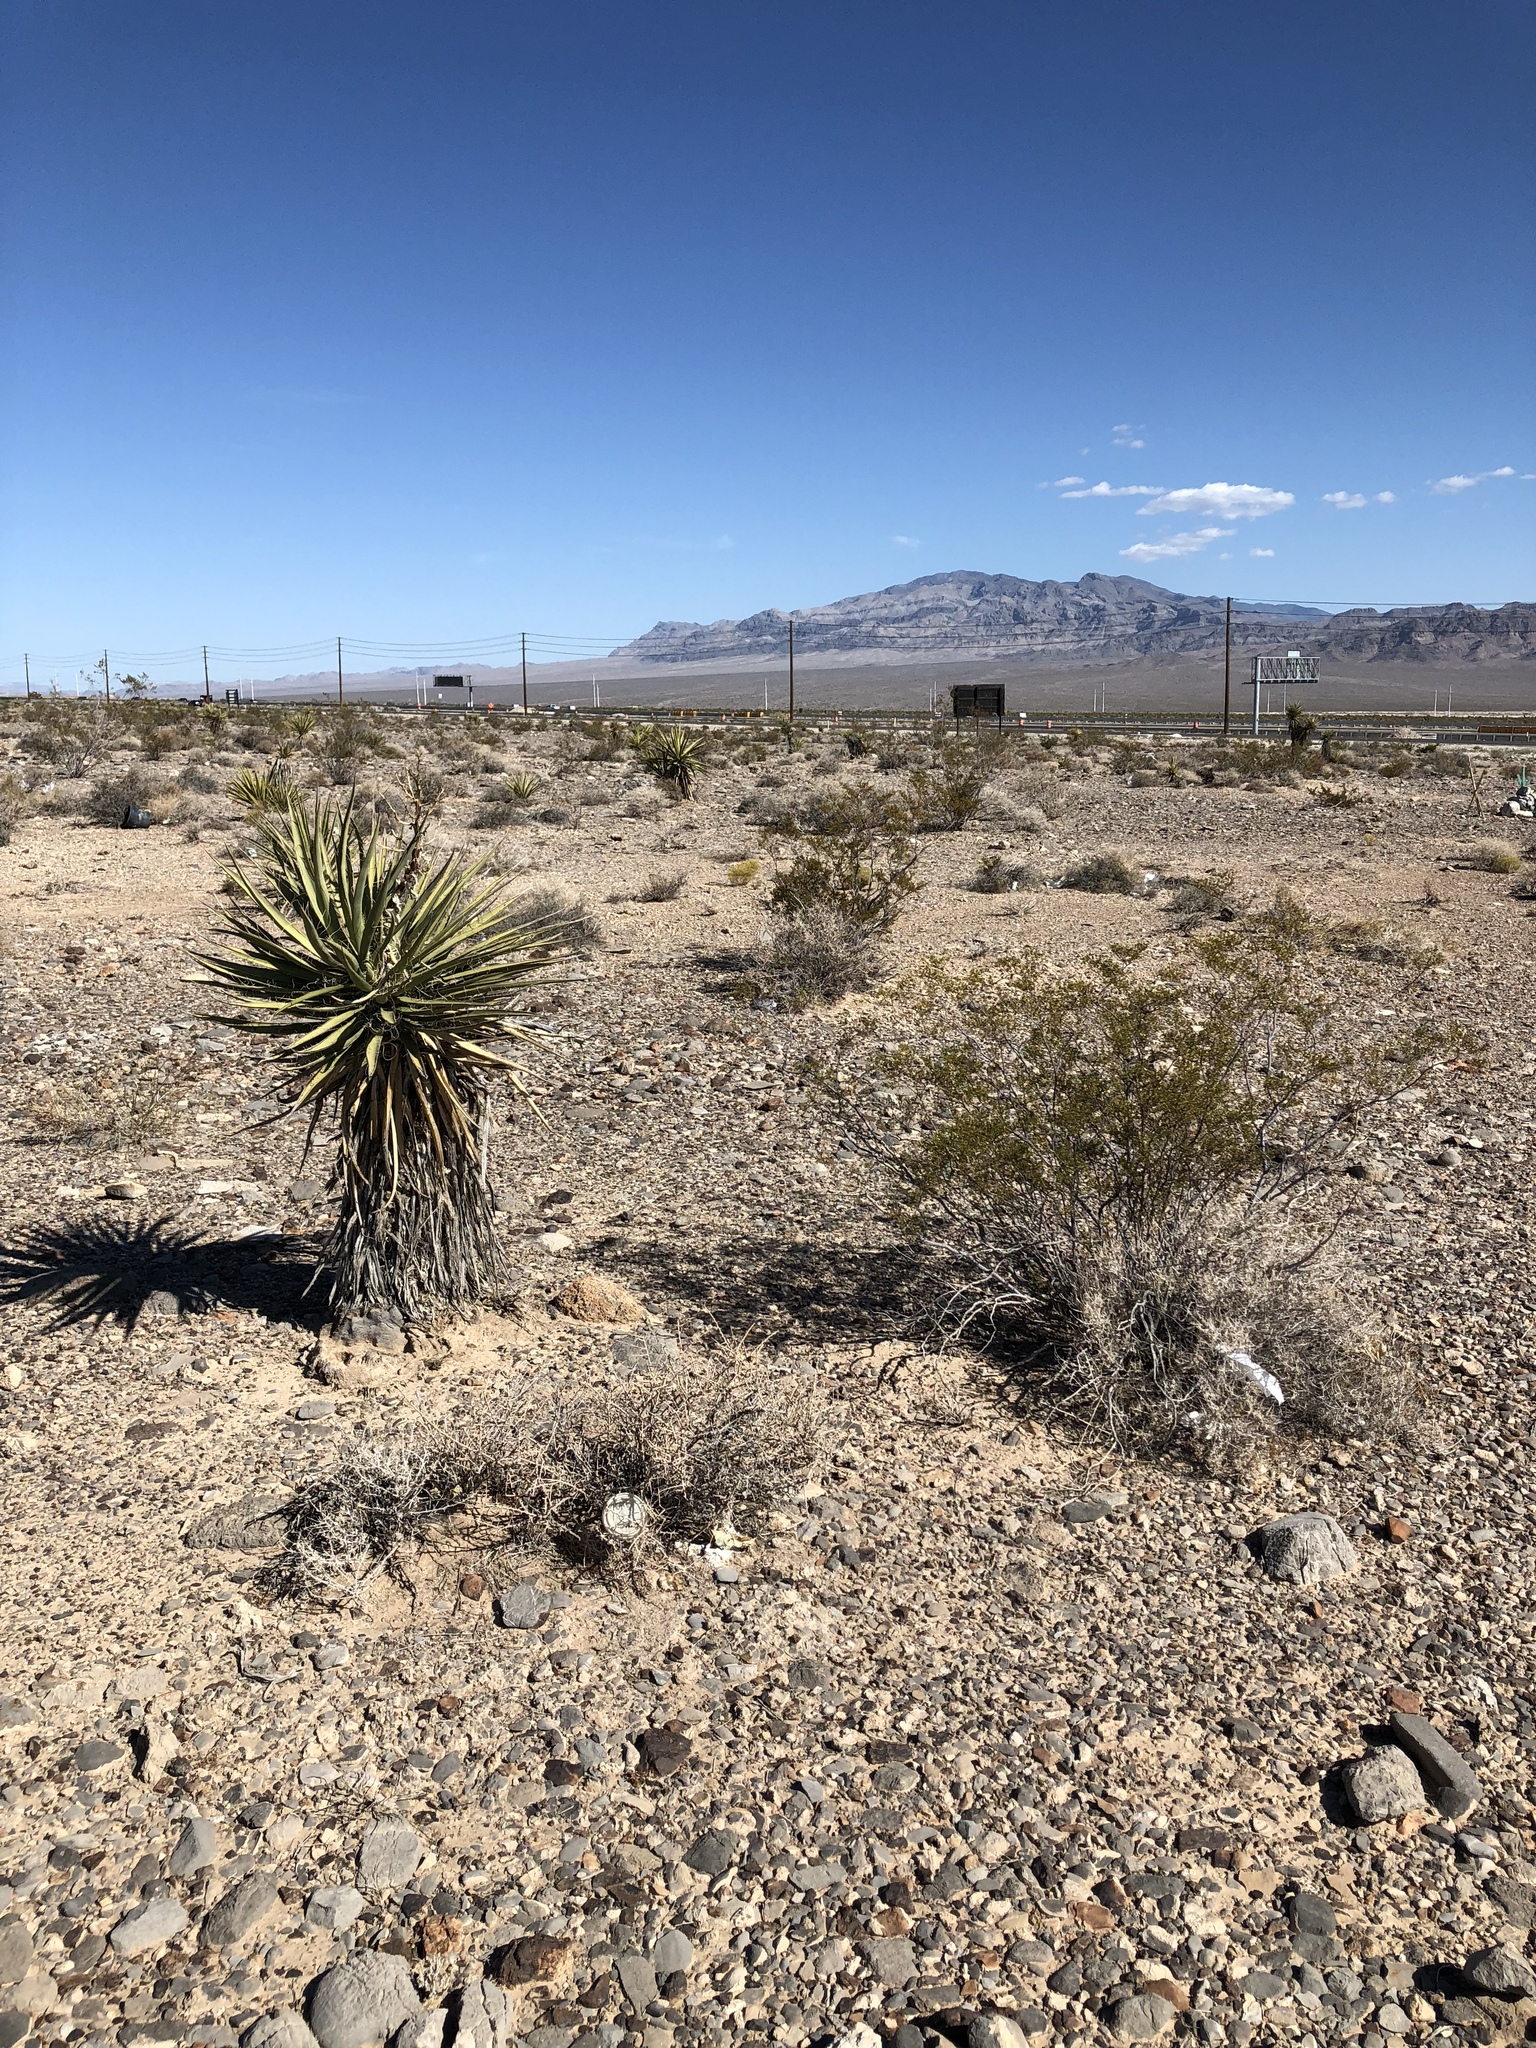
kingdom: Plantae
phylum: Tracheophyta
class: Liliopsida
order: Asparagales
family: Asparagaceae
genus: Yucca
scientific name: Yucca schidigera
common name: Mojave yucca
